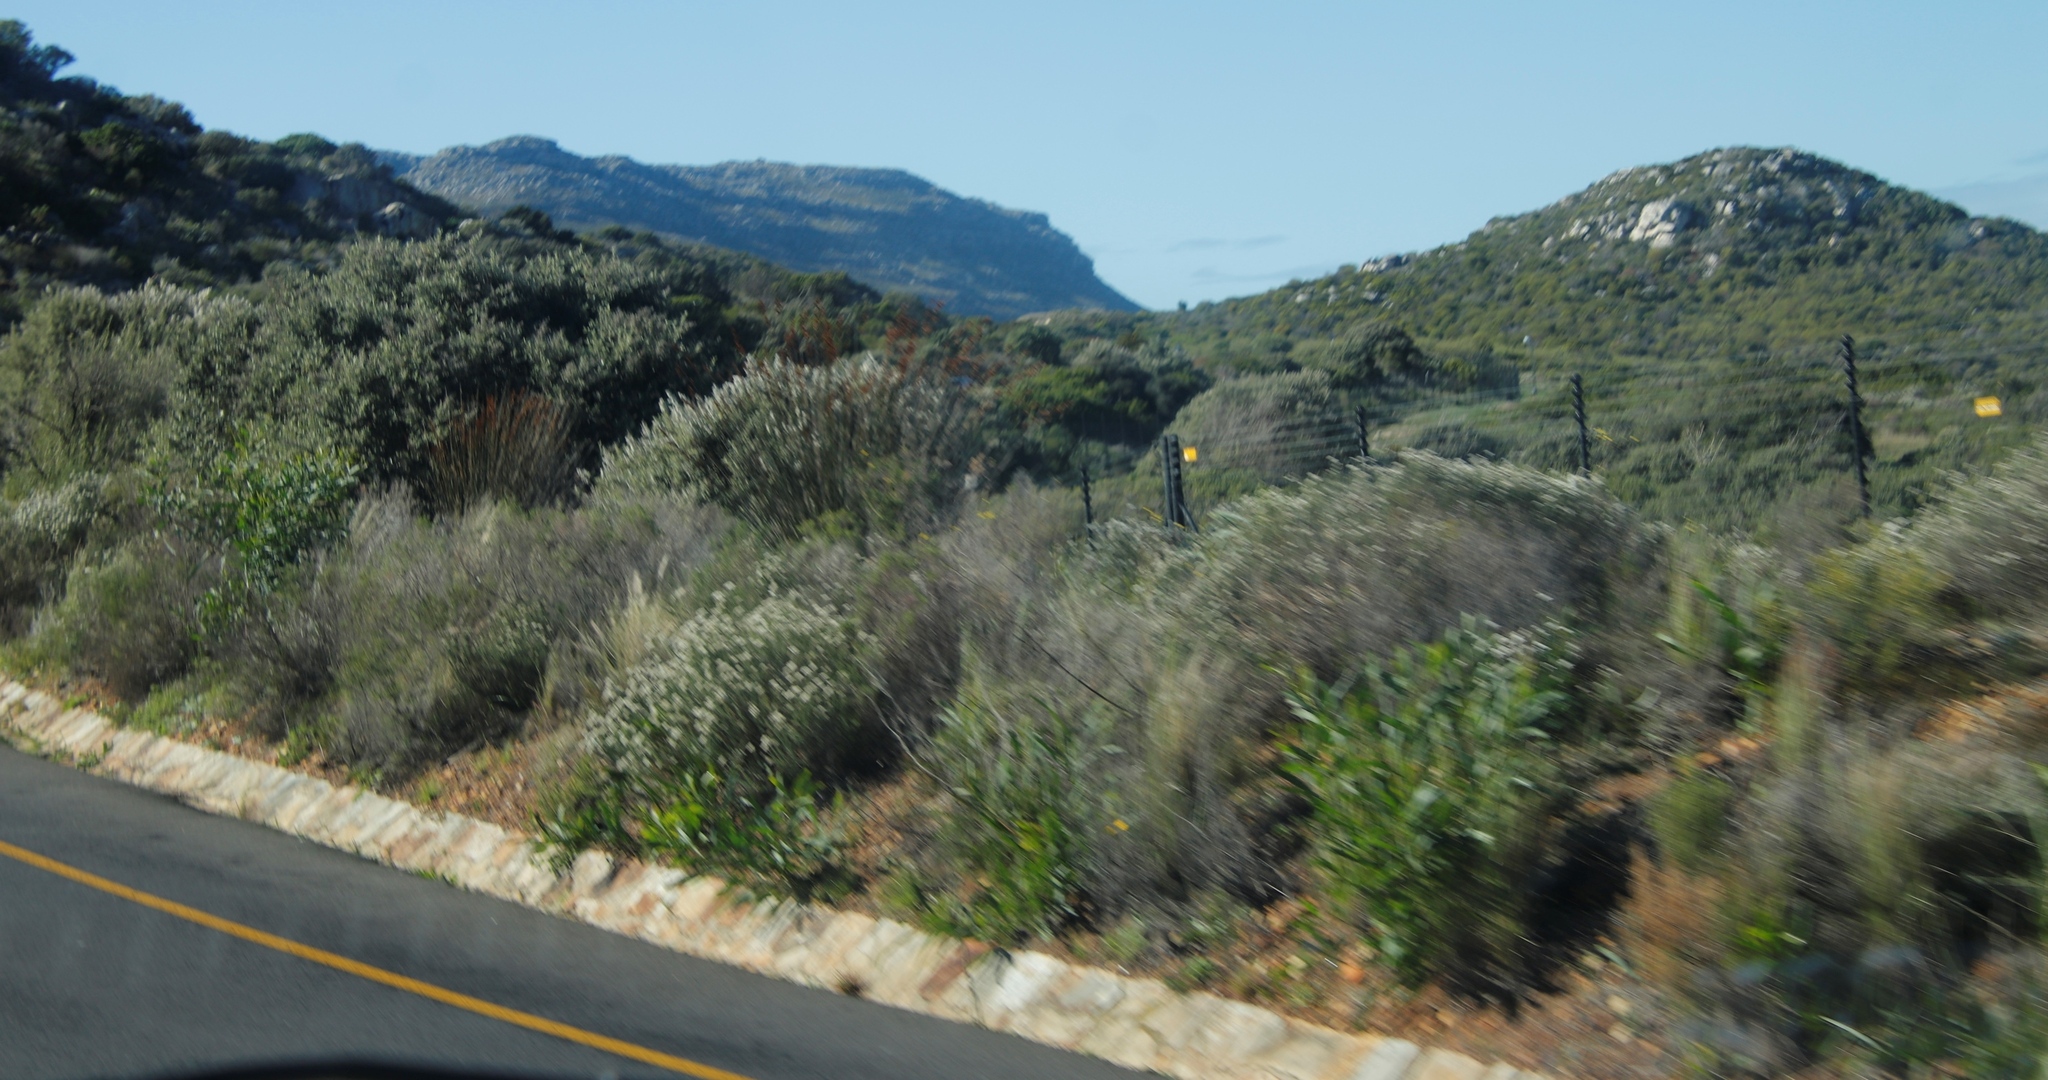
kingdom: Plantae
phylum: Tracheophyta
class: Liliopsida
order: Poales
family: Restionaceae
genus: Thamnochortus
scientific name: Thamnochortus insignis
